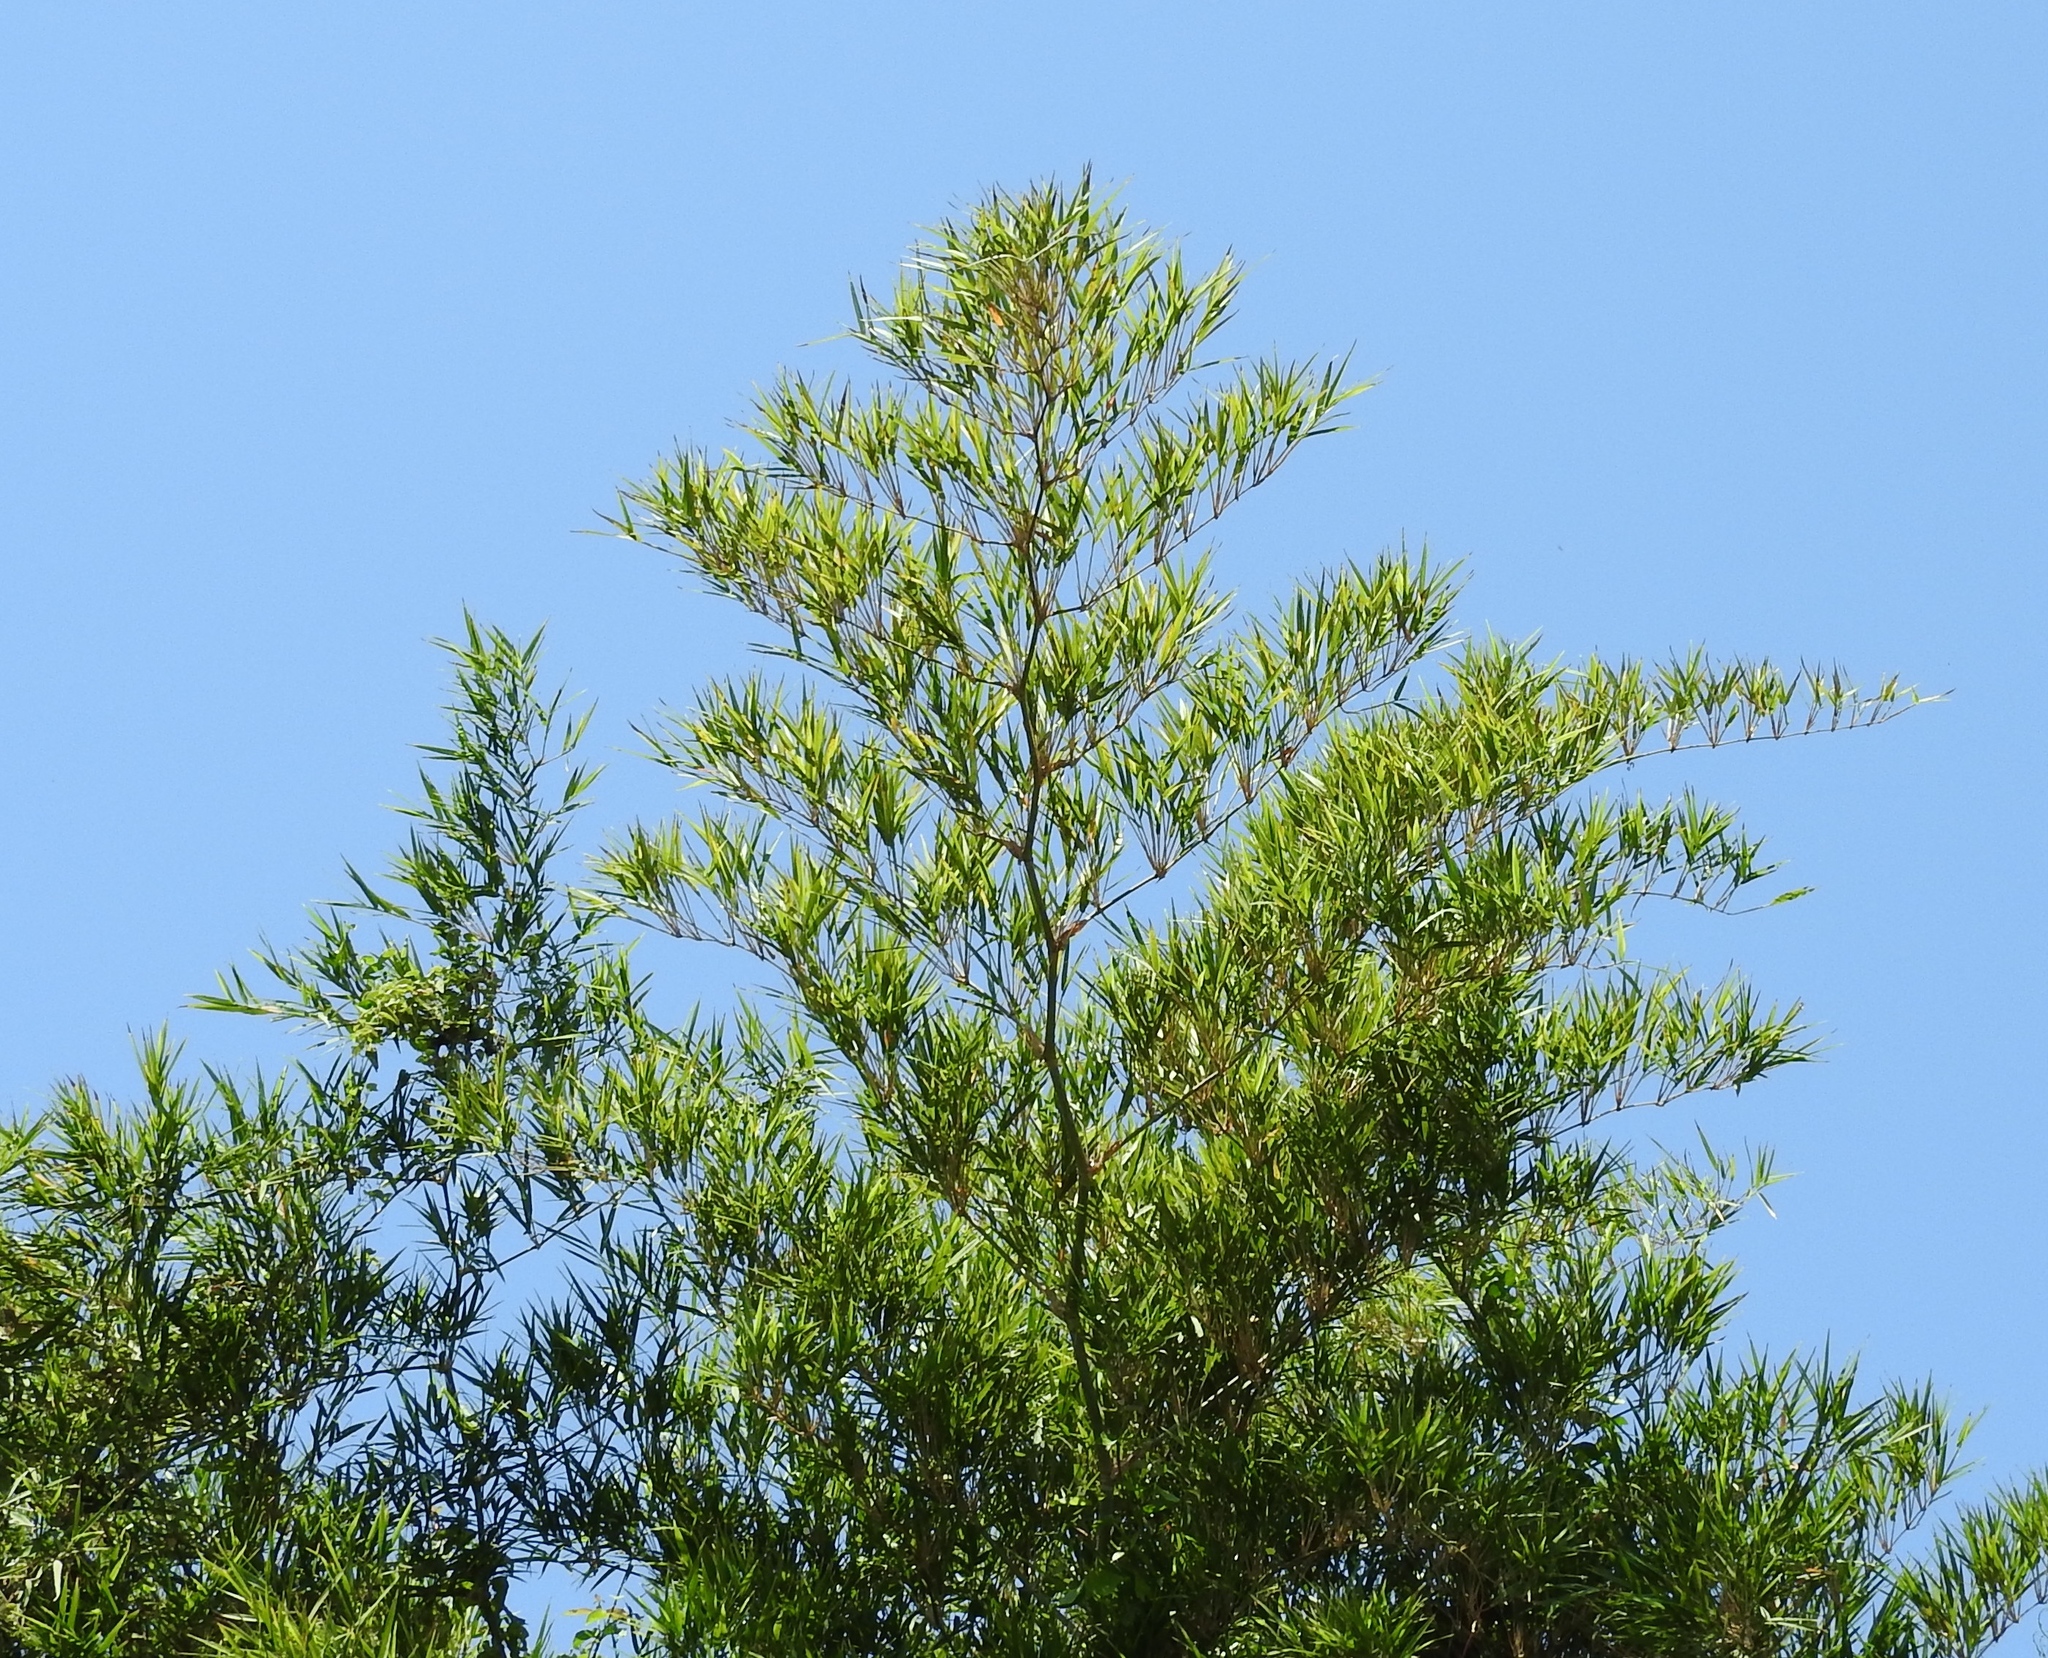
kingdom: Plantae
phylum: Tracheophyta
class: Liliopsida
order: Poales
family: Poaceae
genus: Guadua
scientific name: Guadua paniculata
